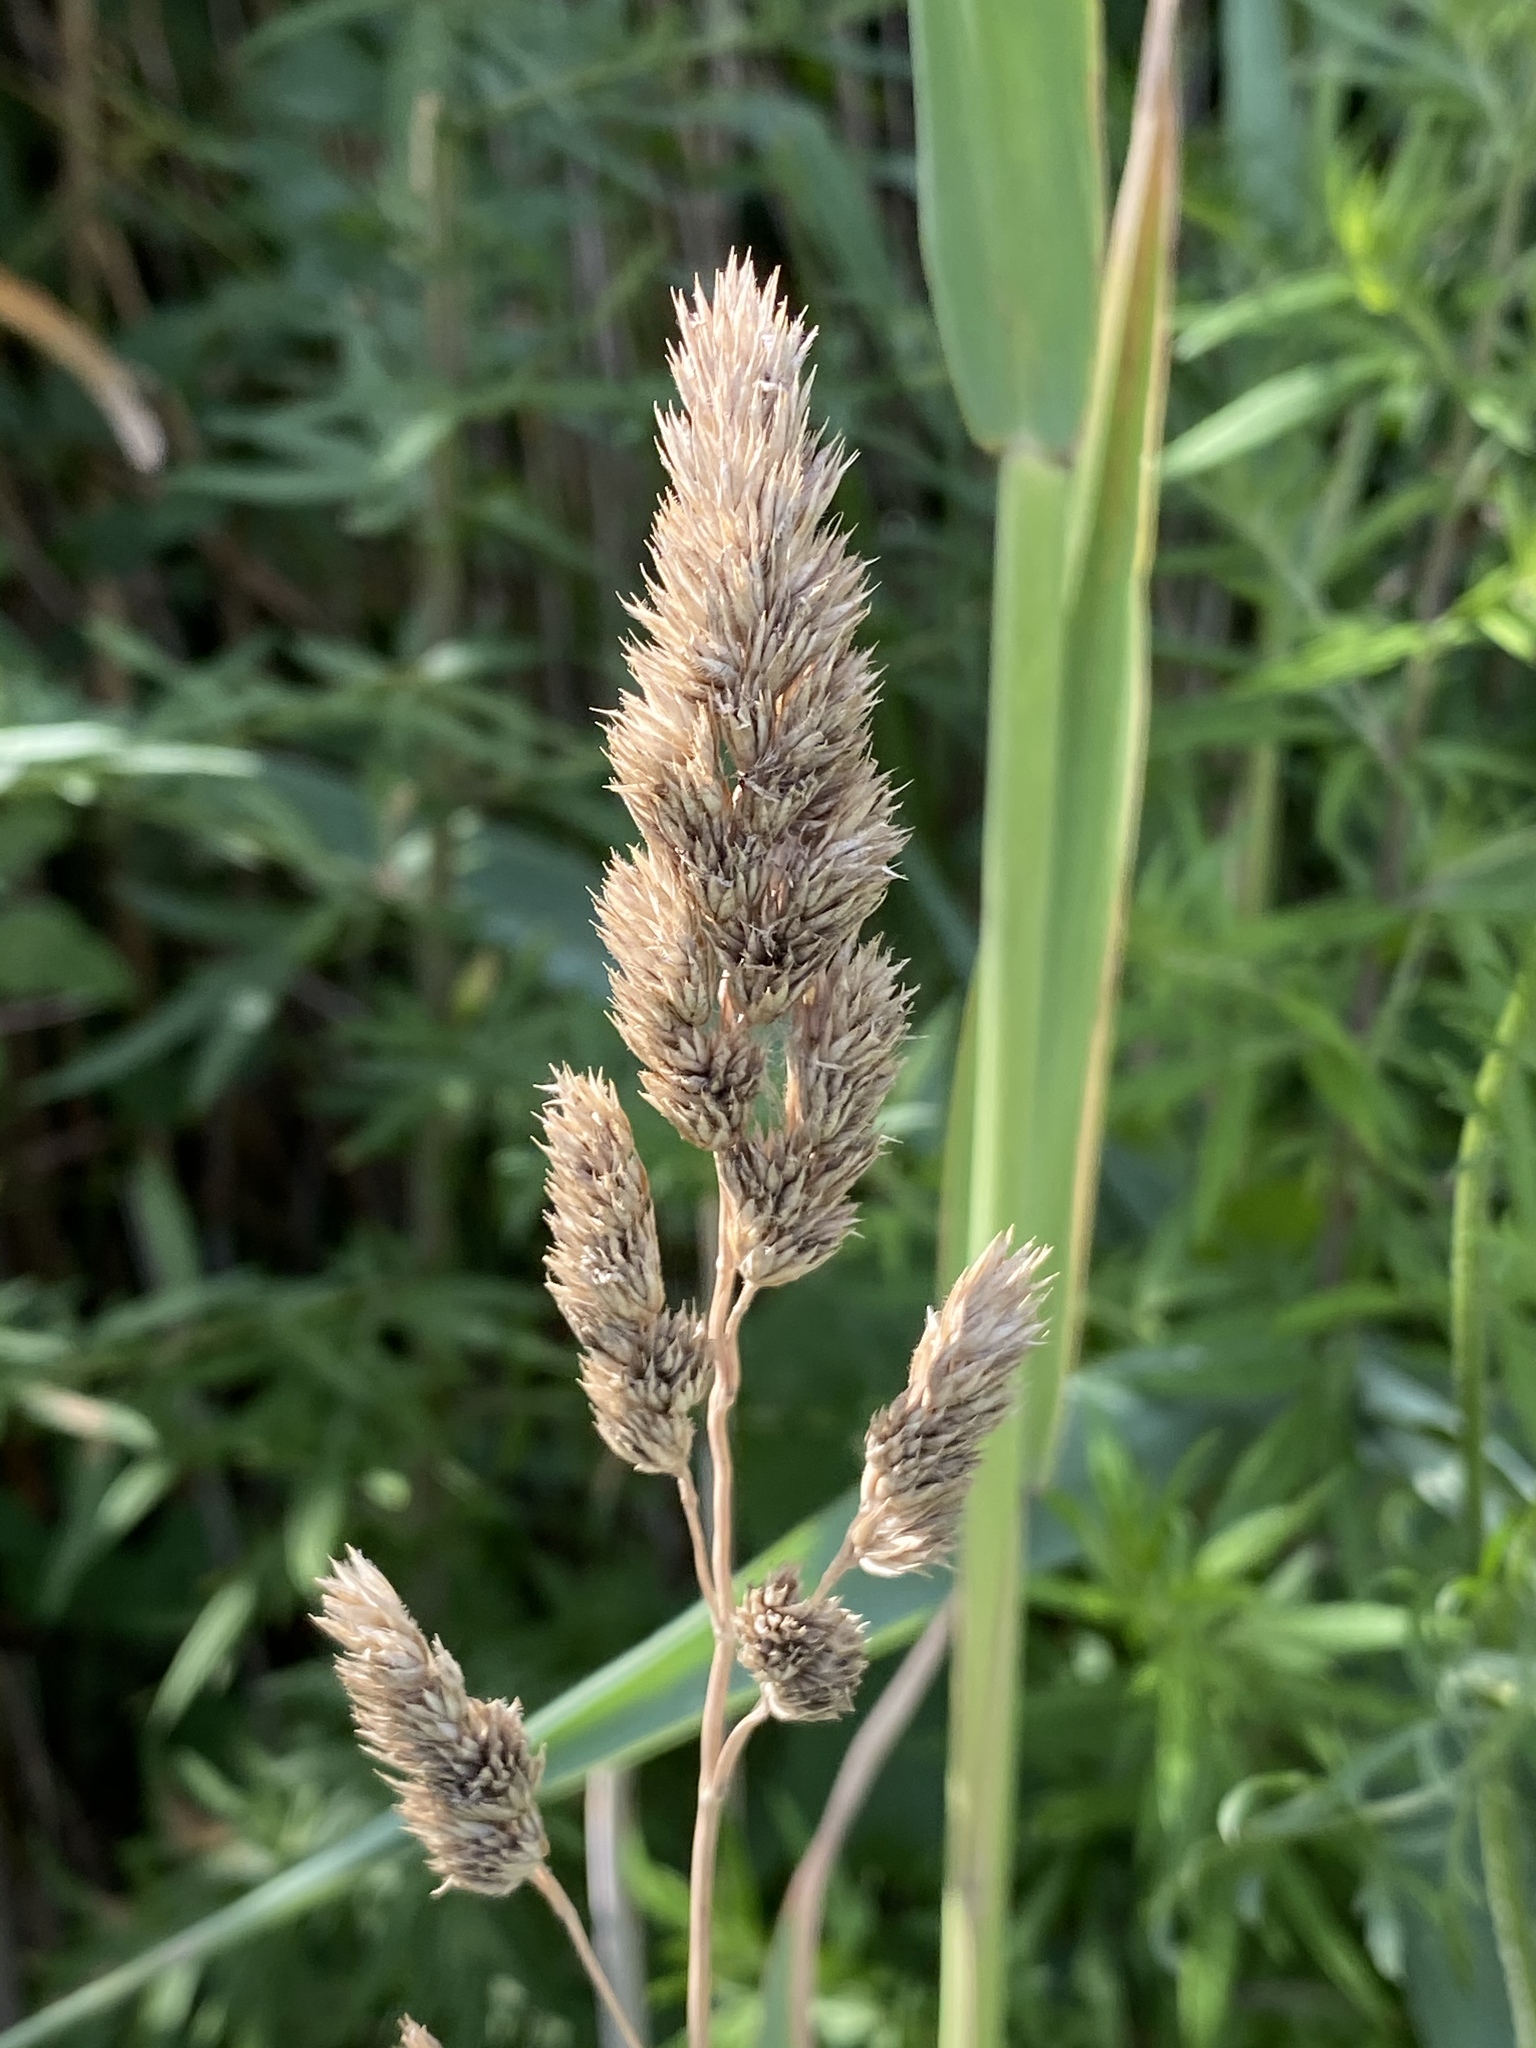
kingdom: Plantae
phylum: Tracheophyta
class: Liliopsida
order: Poales
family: Poaceae
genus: Dactylis
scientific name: Dactylis glomerata
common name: Orchardgrass
